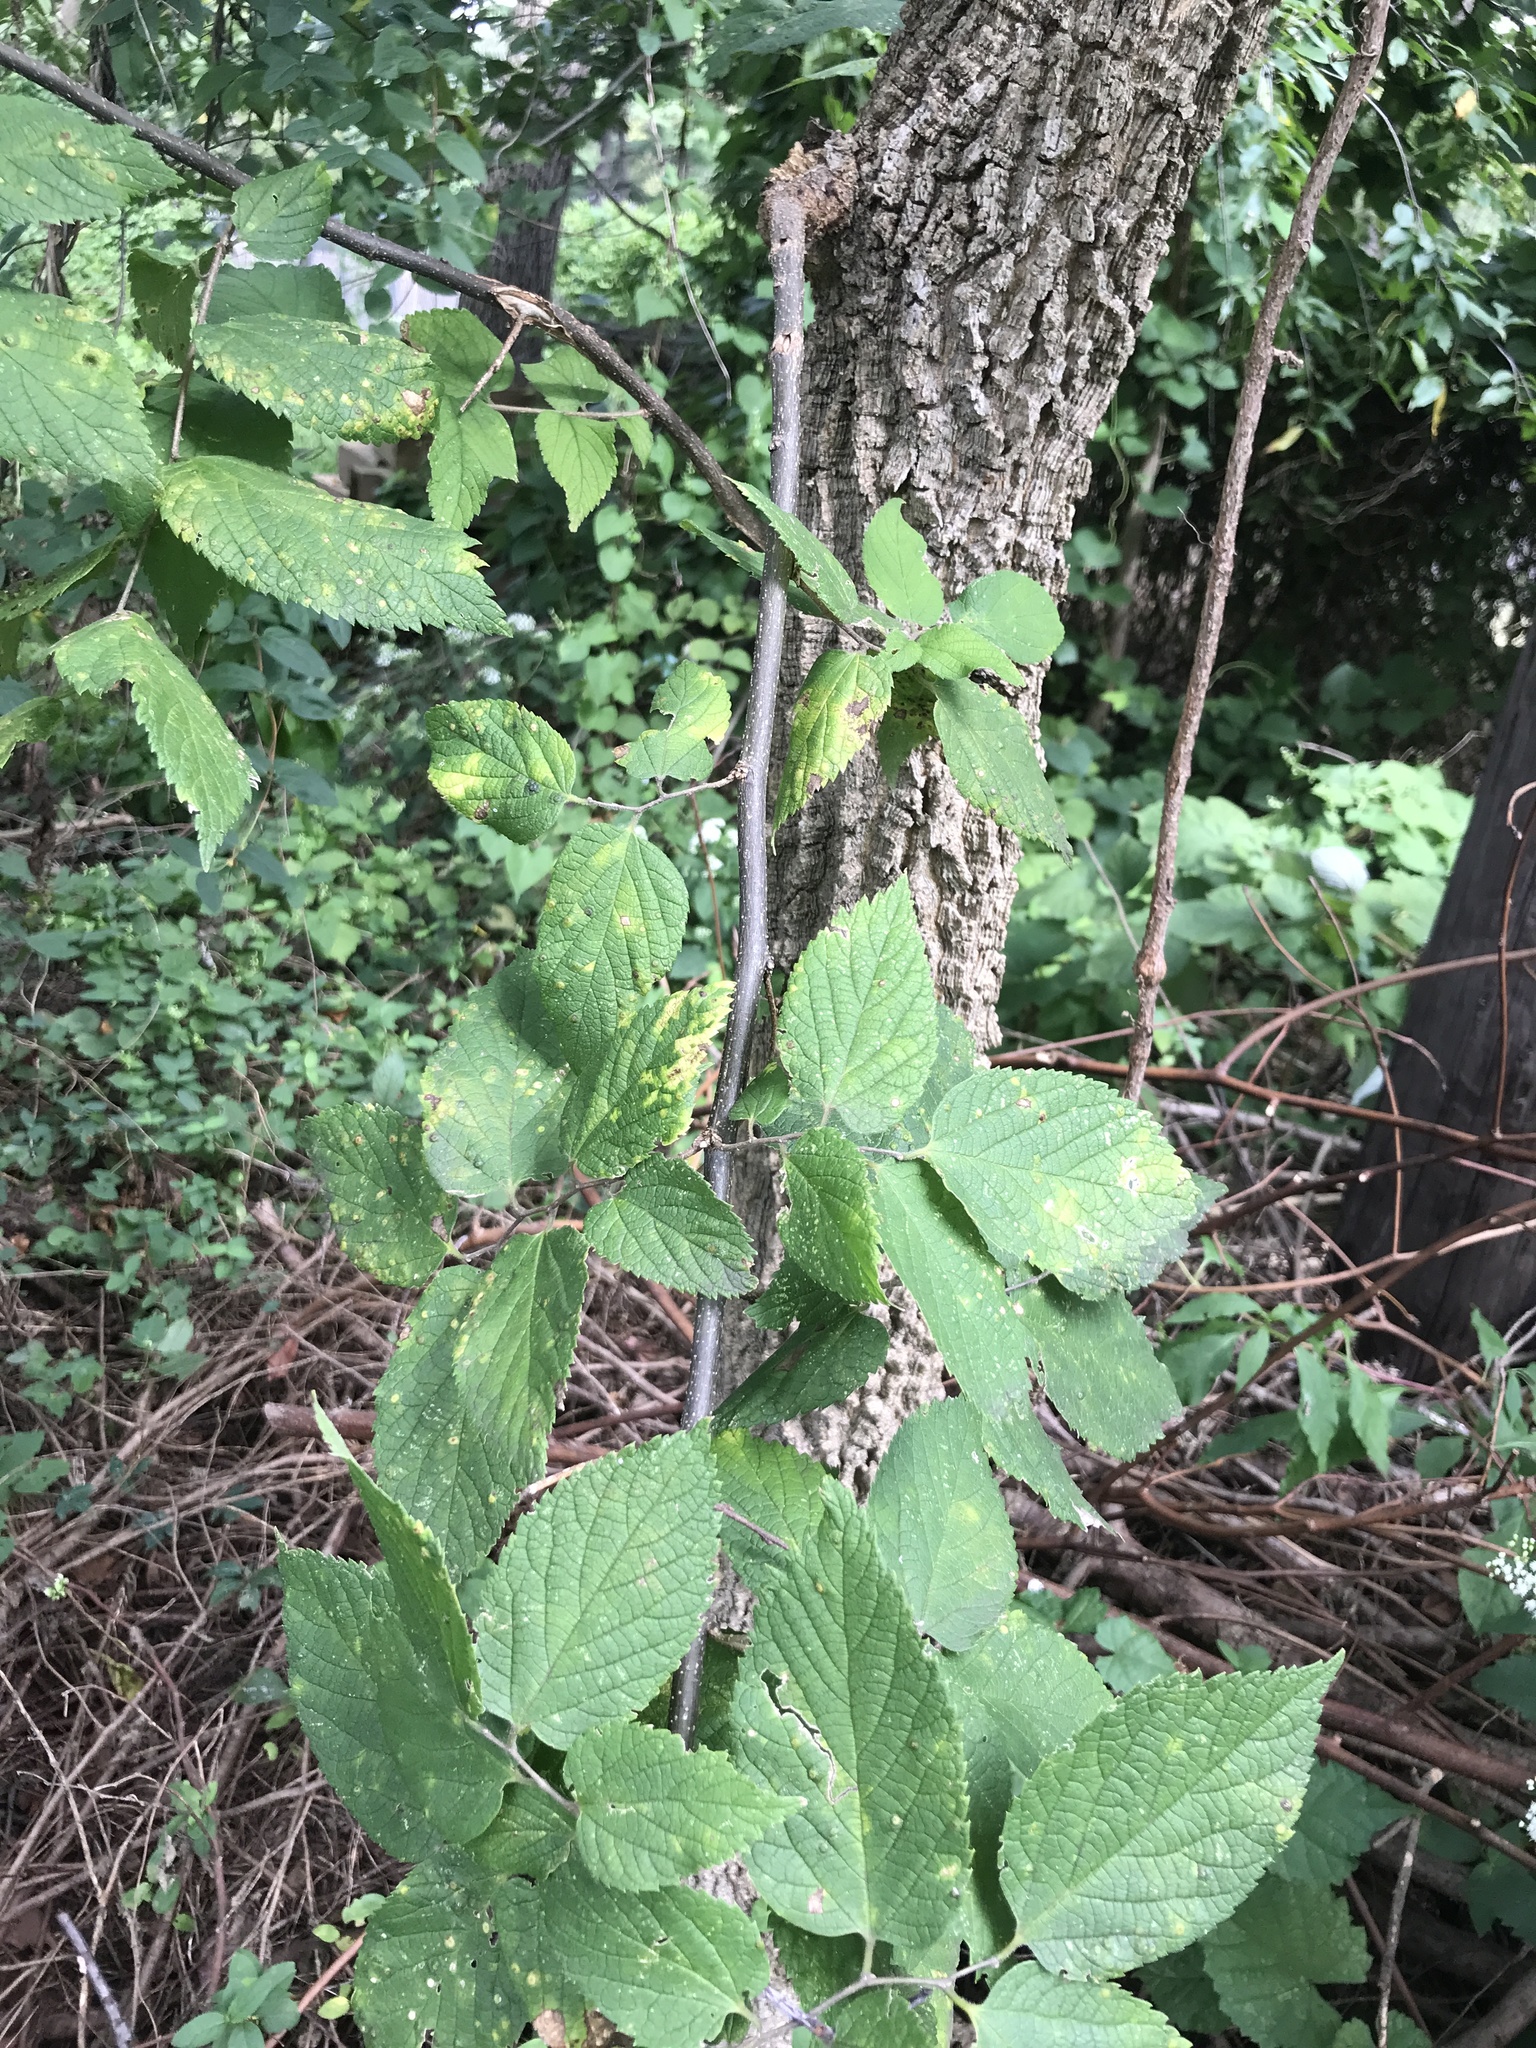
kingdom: Plantae
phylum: Tracheophyta
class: Magnoliopsida
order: Rosales
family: Cannabaceae
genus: Celtis
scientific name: Celtis occidentalis
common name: Common hackberry
